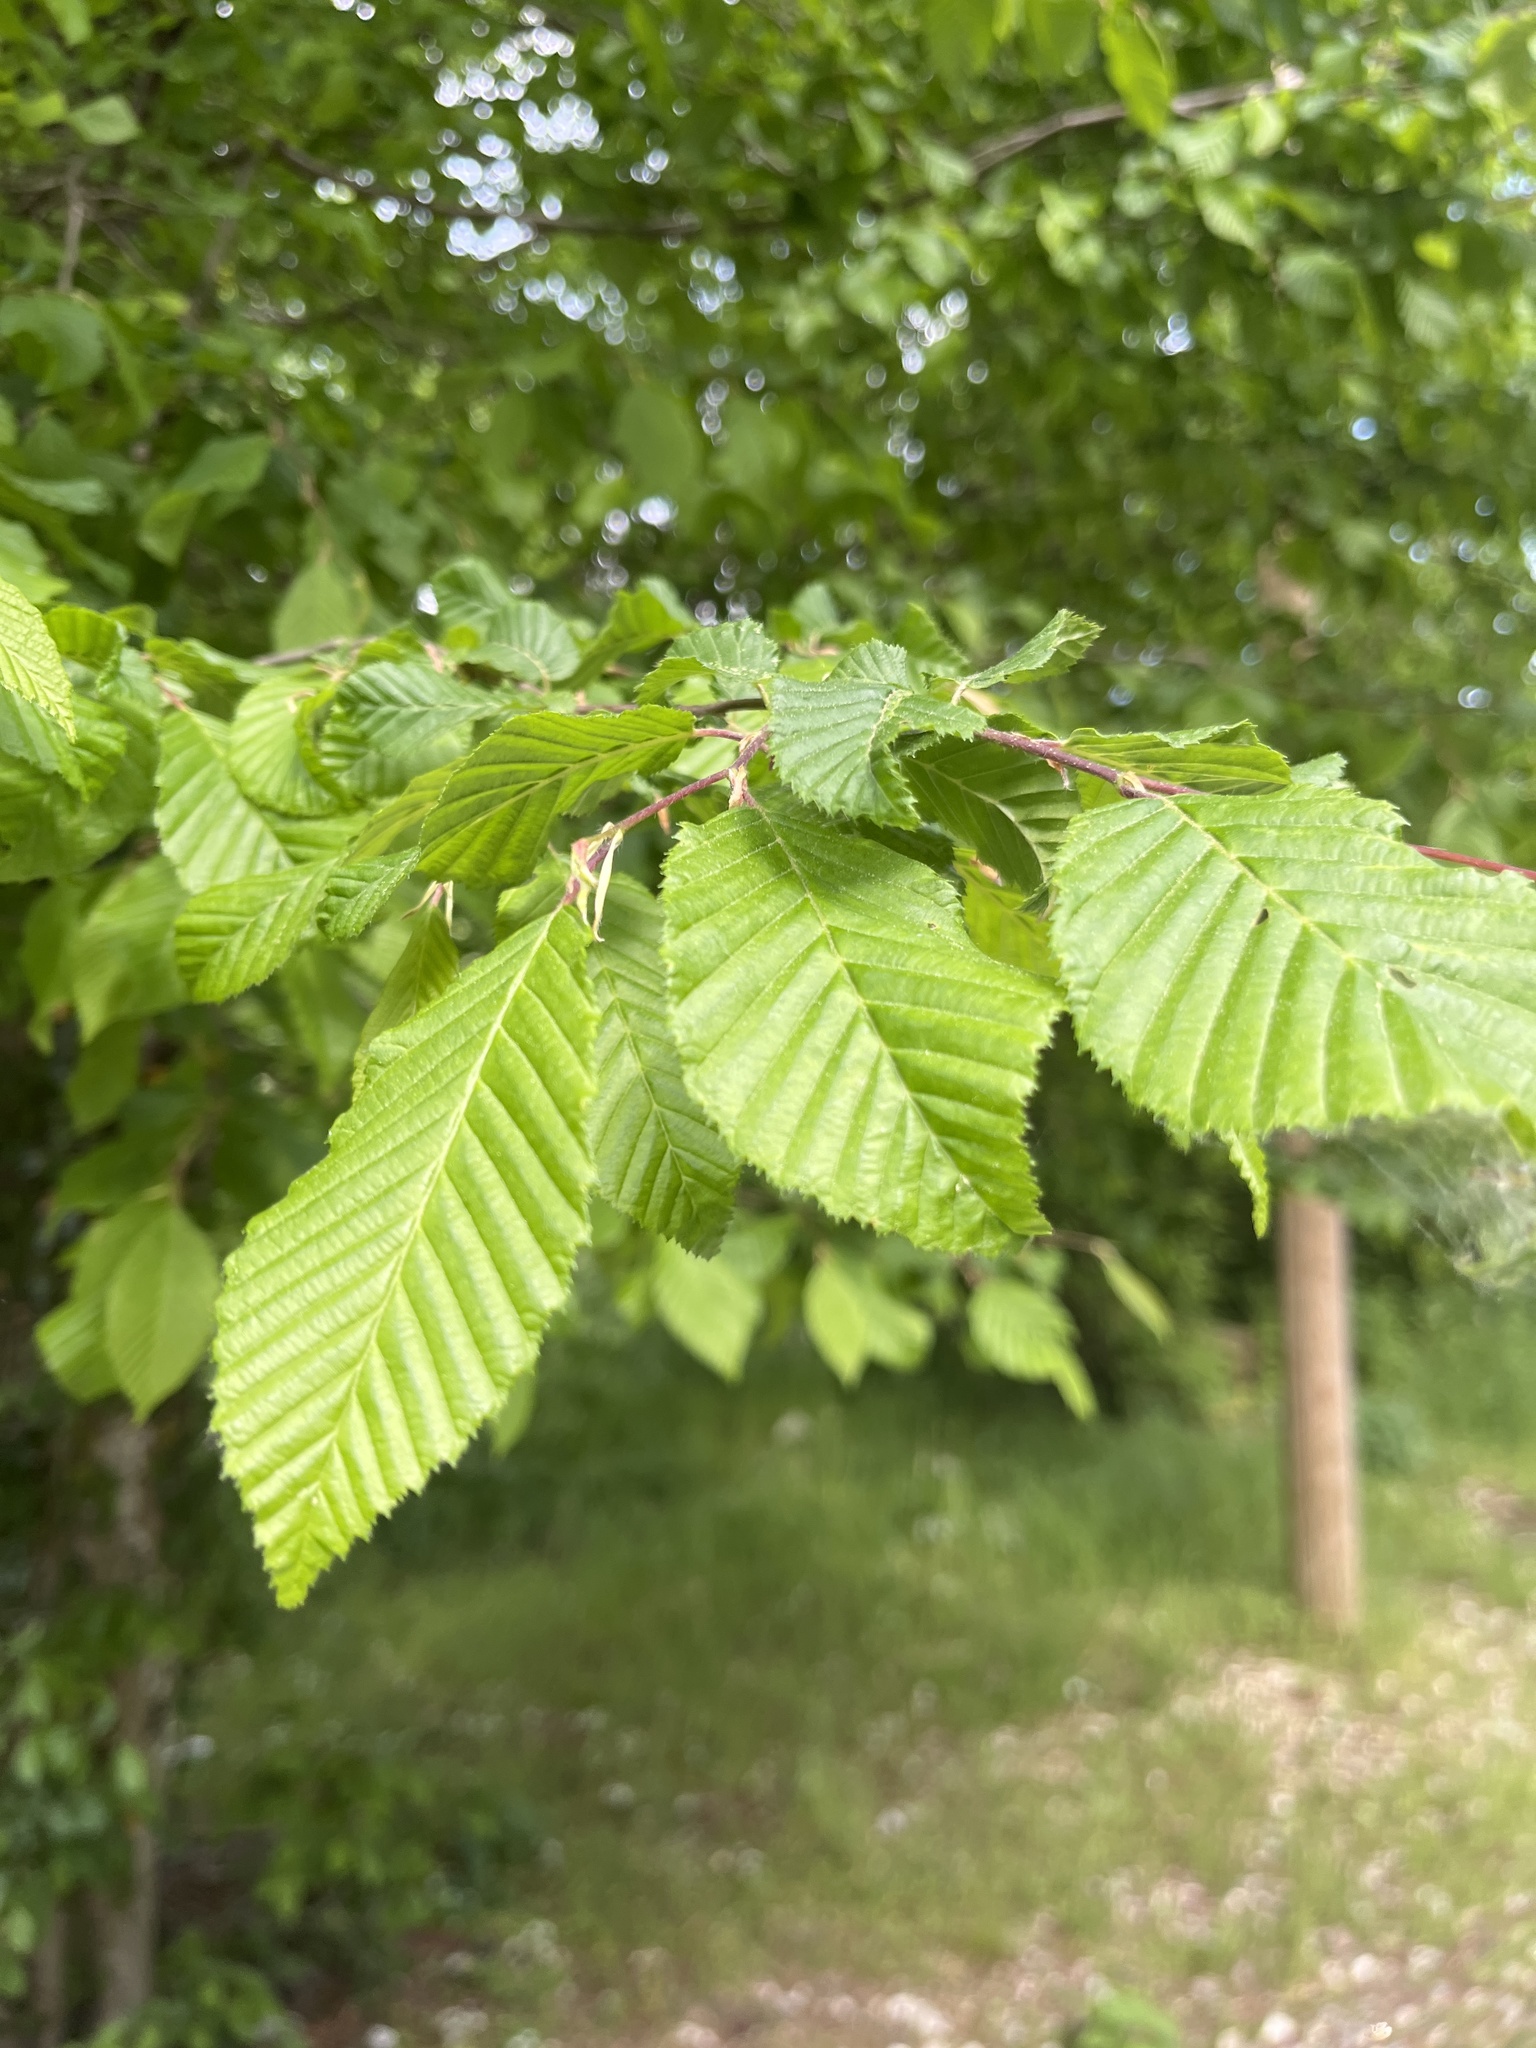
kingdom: Plantae
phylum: Tracheophyta
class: Magnoliopsida
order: Fagales
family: Betulaceae
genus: Carpinus
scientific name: Carpinus betulus
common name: Hornbeam
